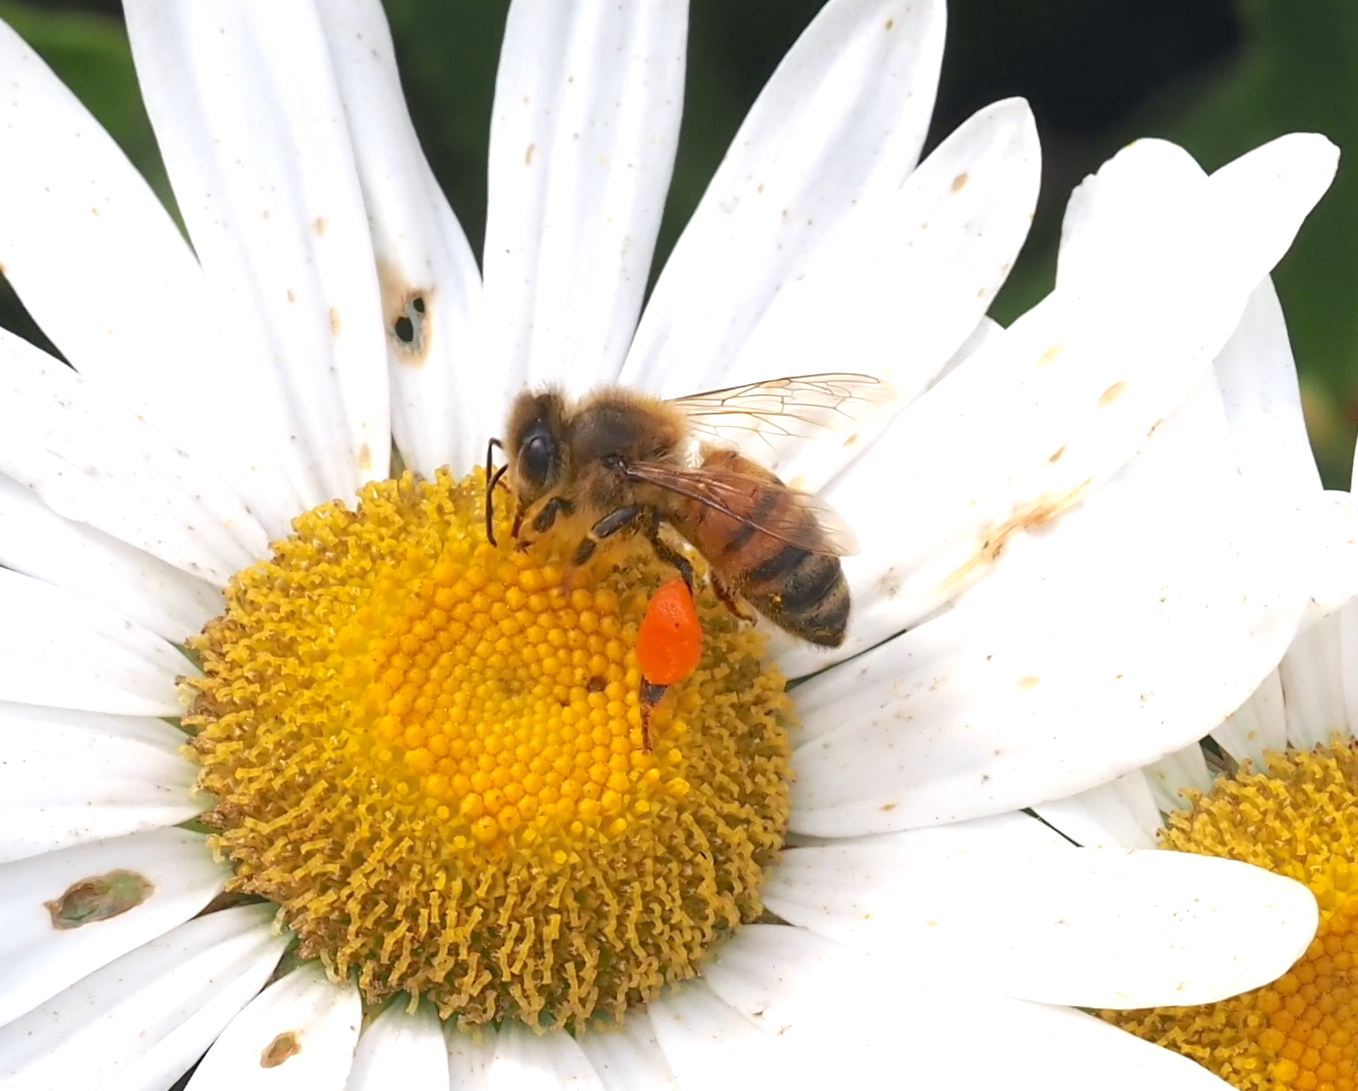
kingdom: Animalia
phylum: Arthropoda
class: Insecta
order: Hymenoptera
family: Apidae
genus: Apis
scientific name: Apis mellifera
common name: Honey bee
